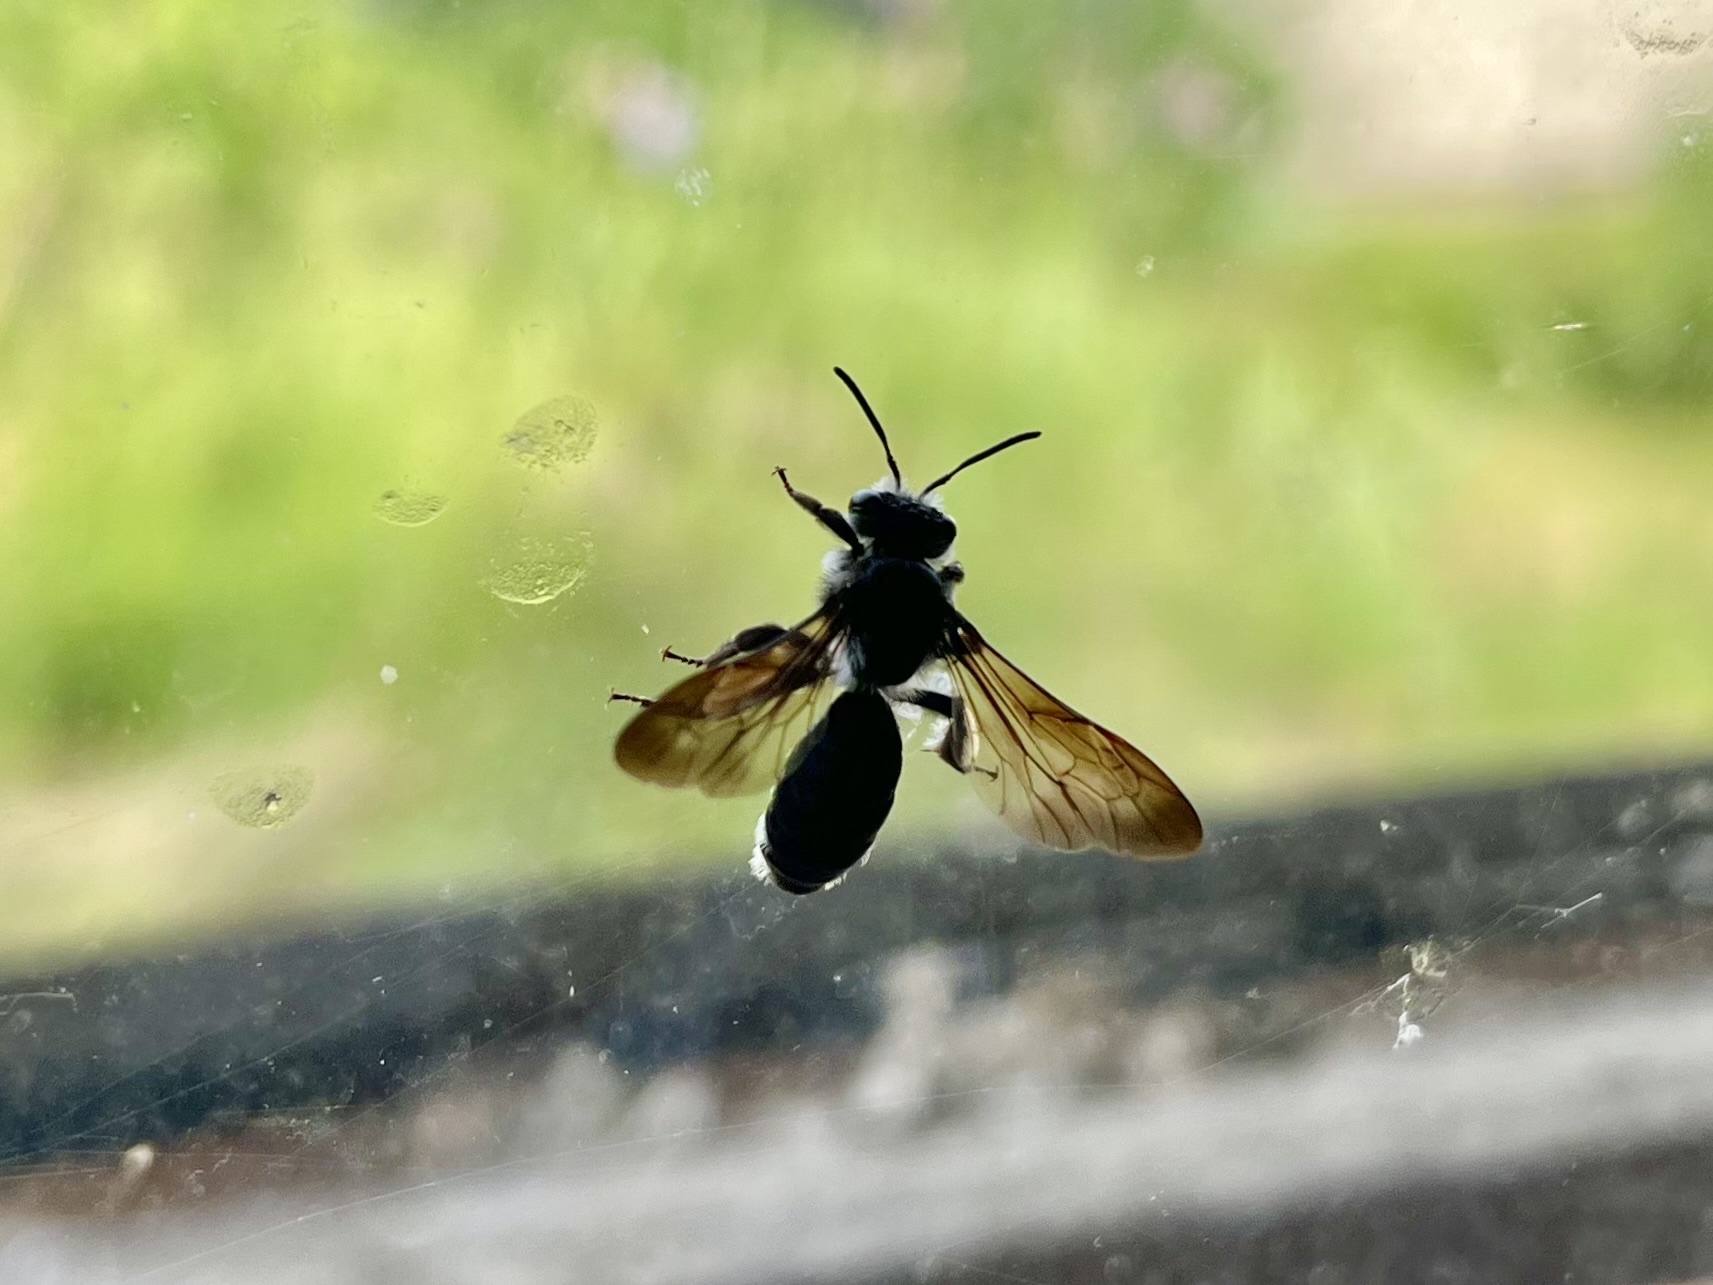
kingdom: Animalia
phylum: Arthropoda
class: Insecta
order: Hymenoptera
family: Andrenidae
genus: Andrena
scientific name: Andrena agilissima
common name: Violet-winged mining bee
